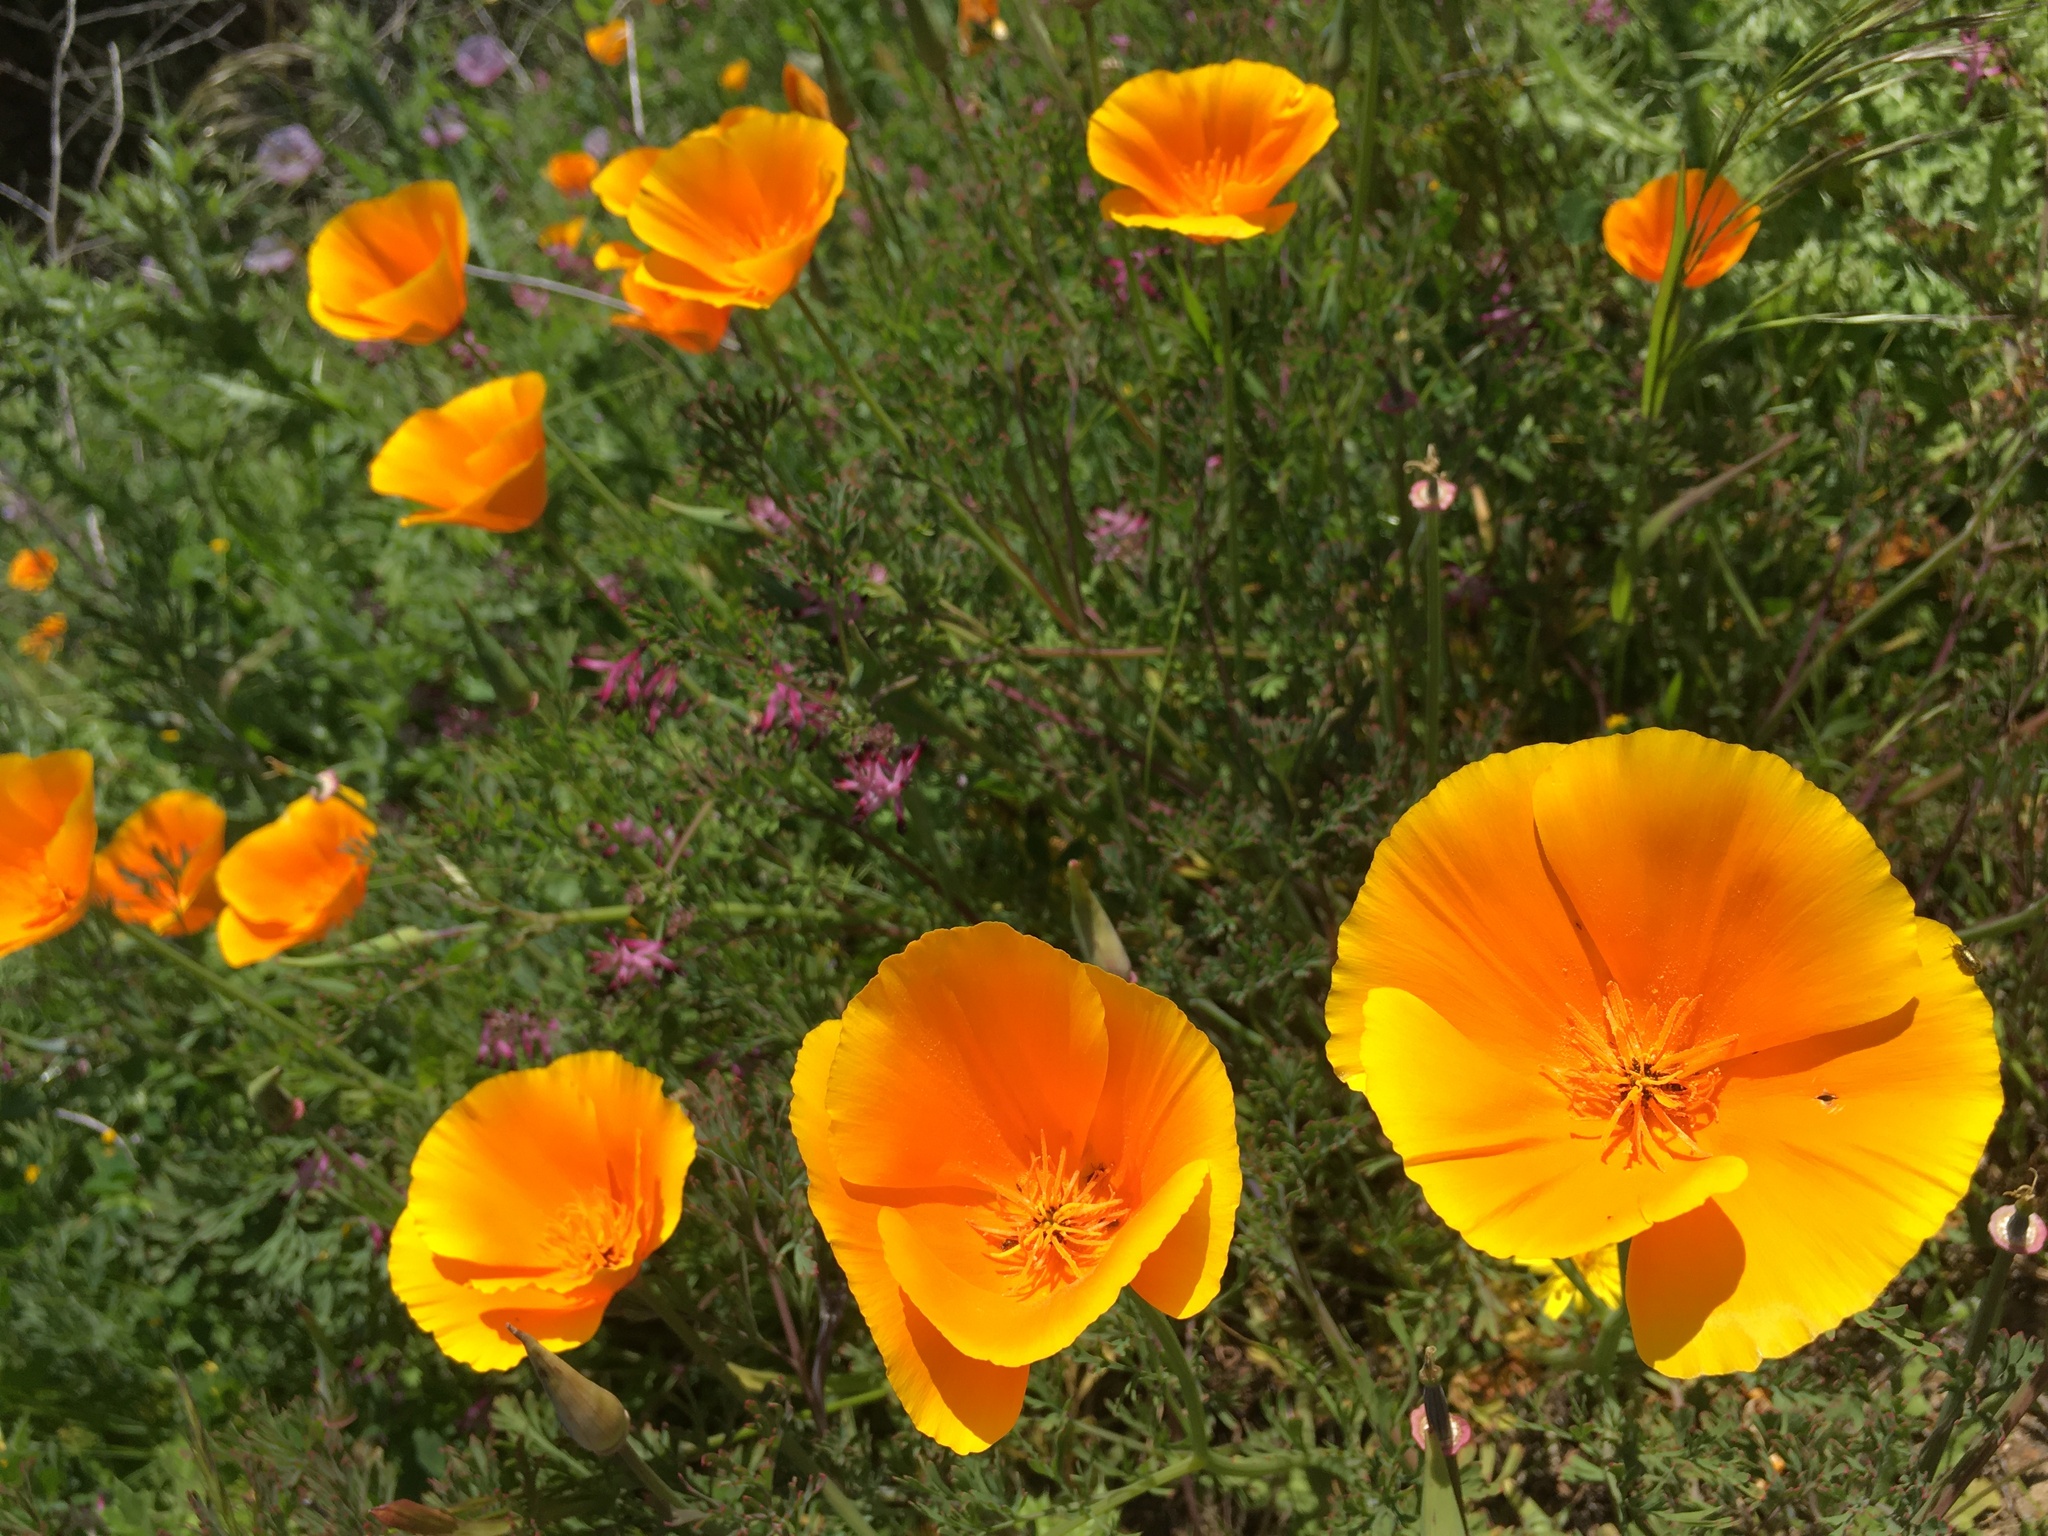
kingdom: Plantae
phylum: Tracheophyta
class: Magnoliopsida
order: Ranunculales
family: Papaveraceae
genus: Eschscholzia
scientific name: Eschscholzia californica
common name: California poppy
